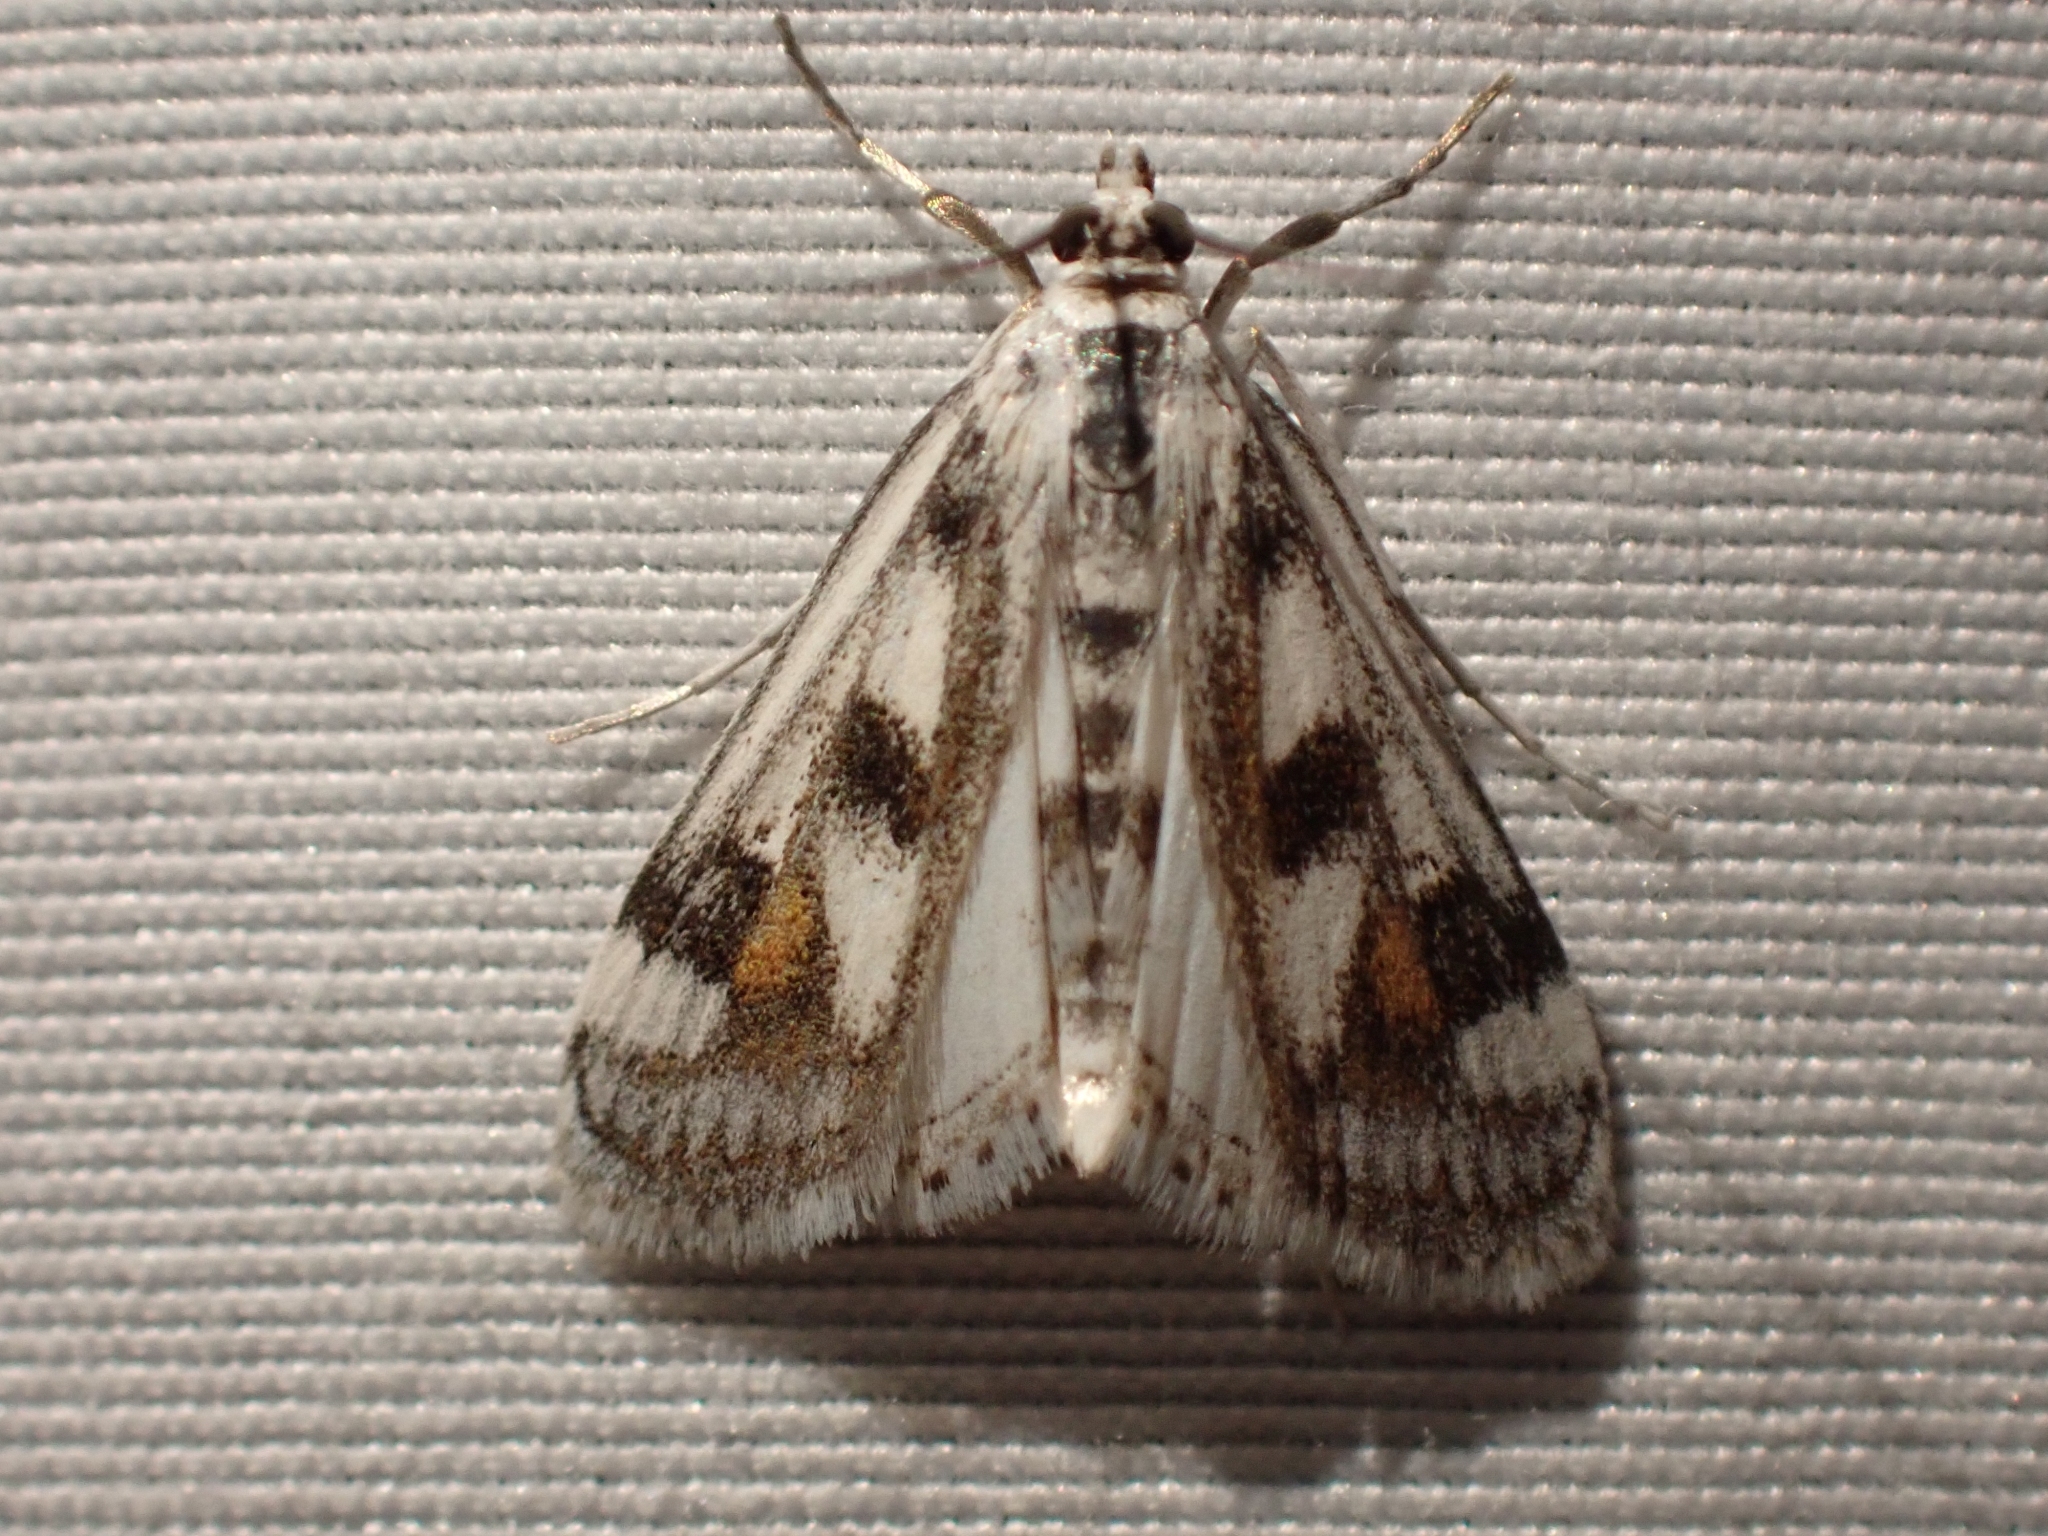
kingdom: Animalia
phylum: Arthropoda
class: Insecta
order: Lepidoptera
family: Crambidae
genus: Parapoynx
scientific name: Parapoynx maculalis
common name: Polymorphic pondweed moth
